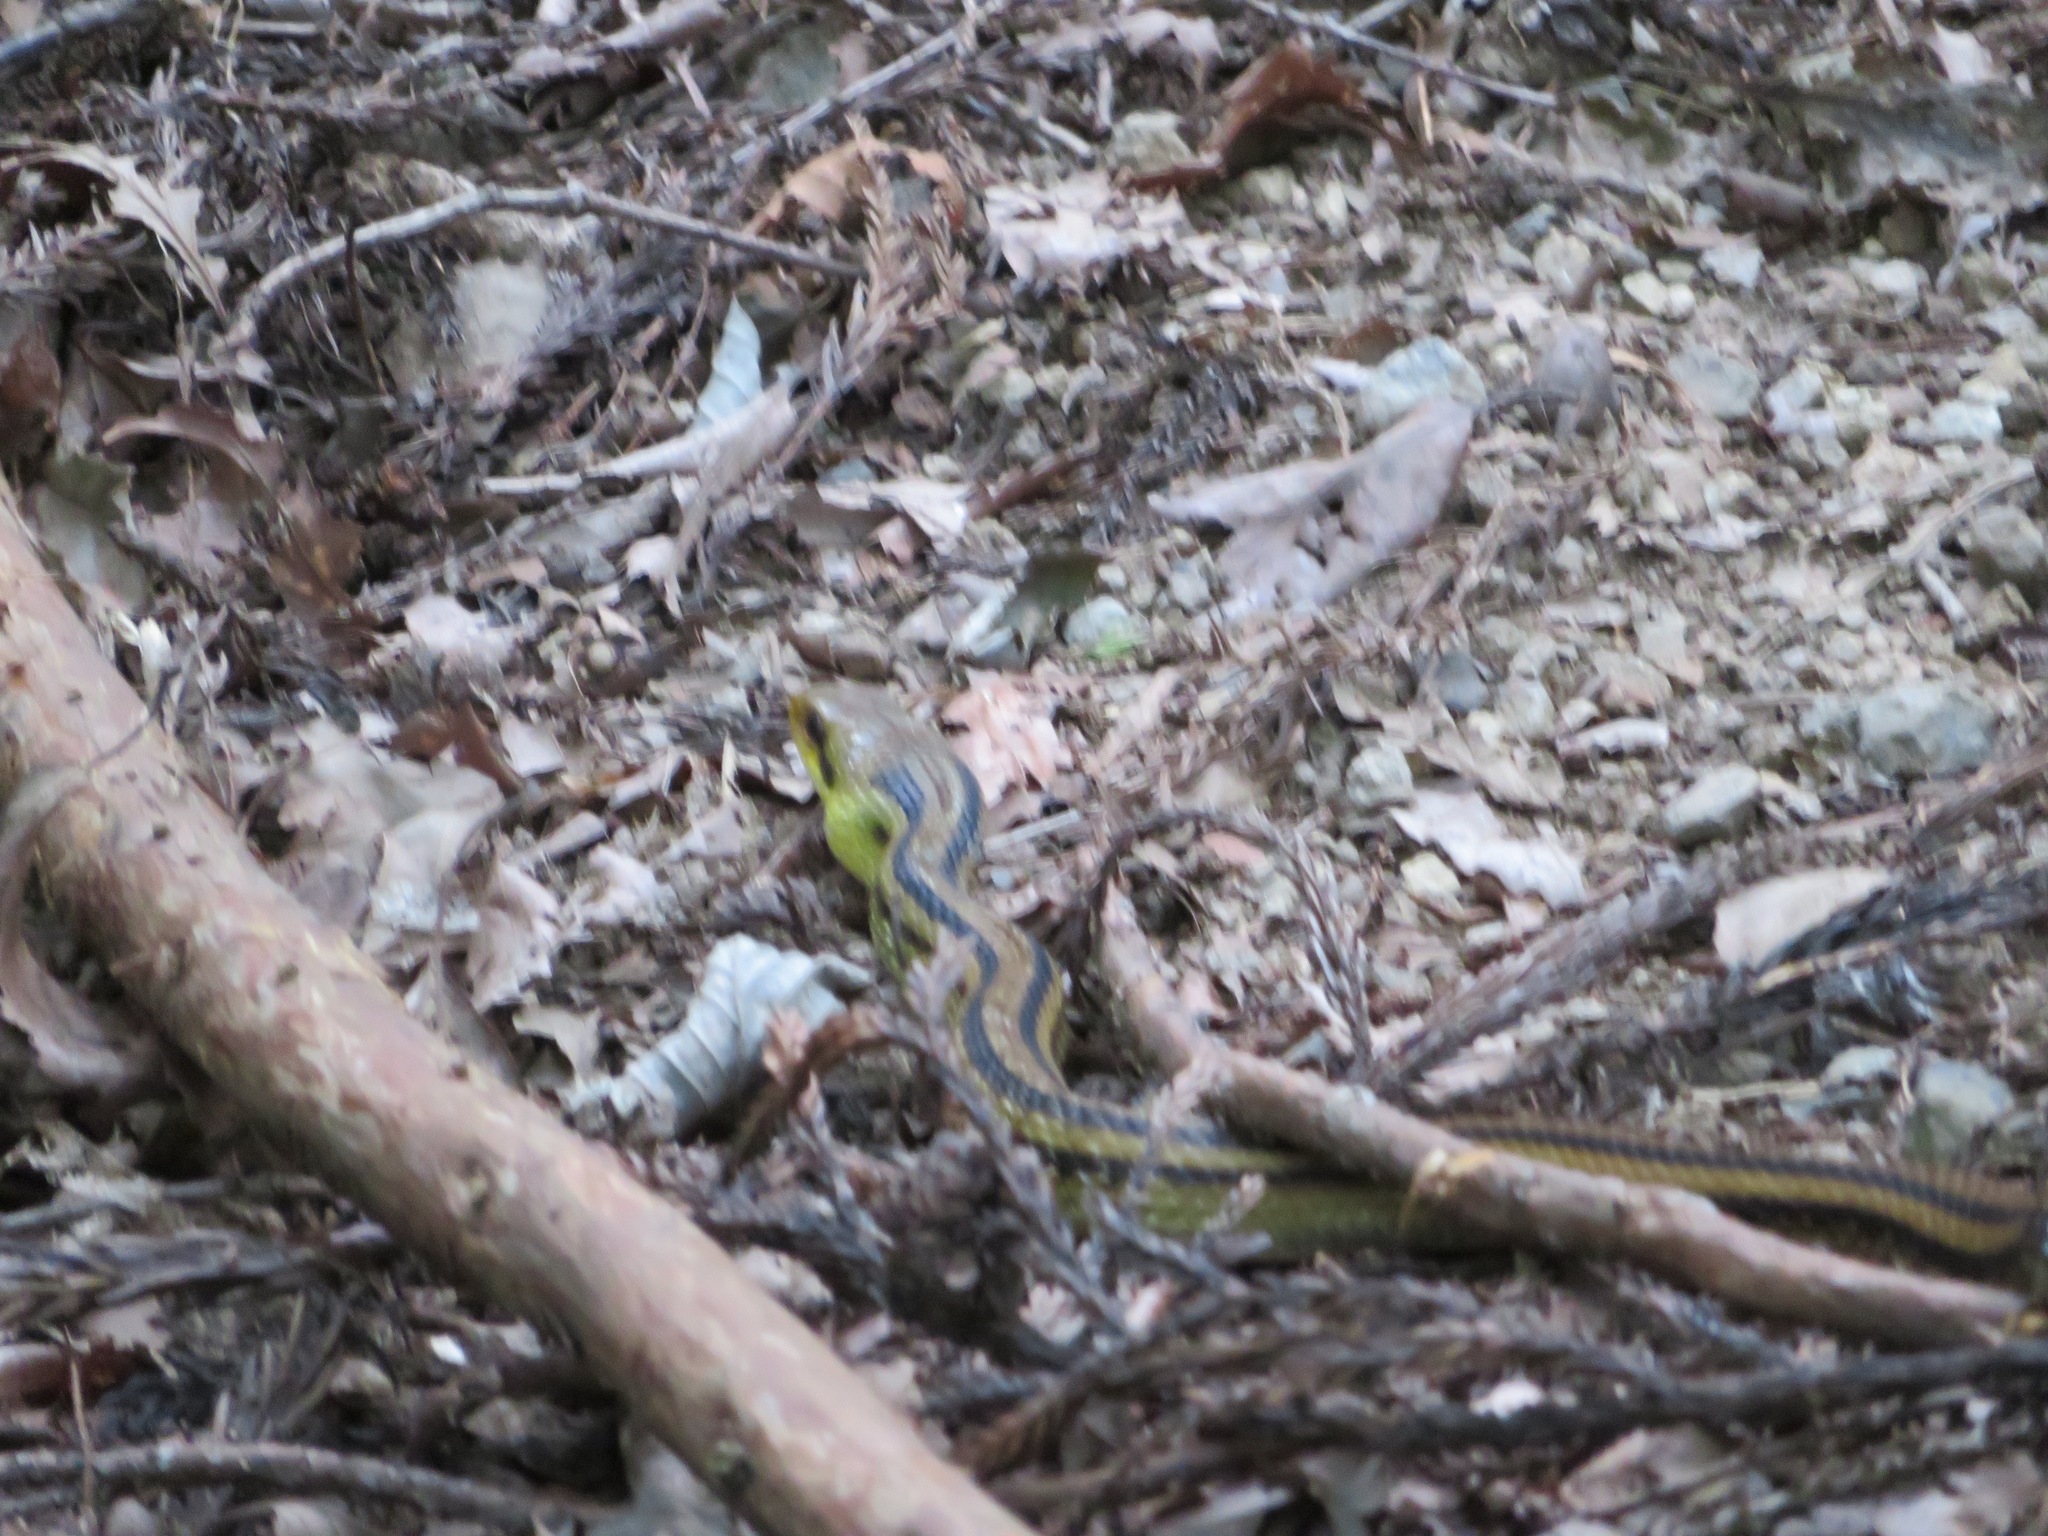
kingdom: Animalia
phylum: Chordata
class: Squamata
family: Colubridae
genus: Elaphe
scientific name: Elaphe quadrivirgata
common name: Japanese four-lined ratsnake
